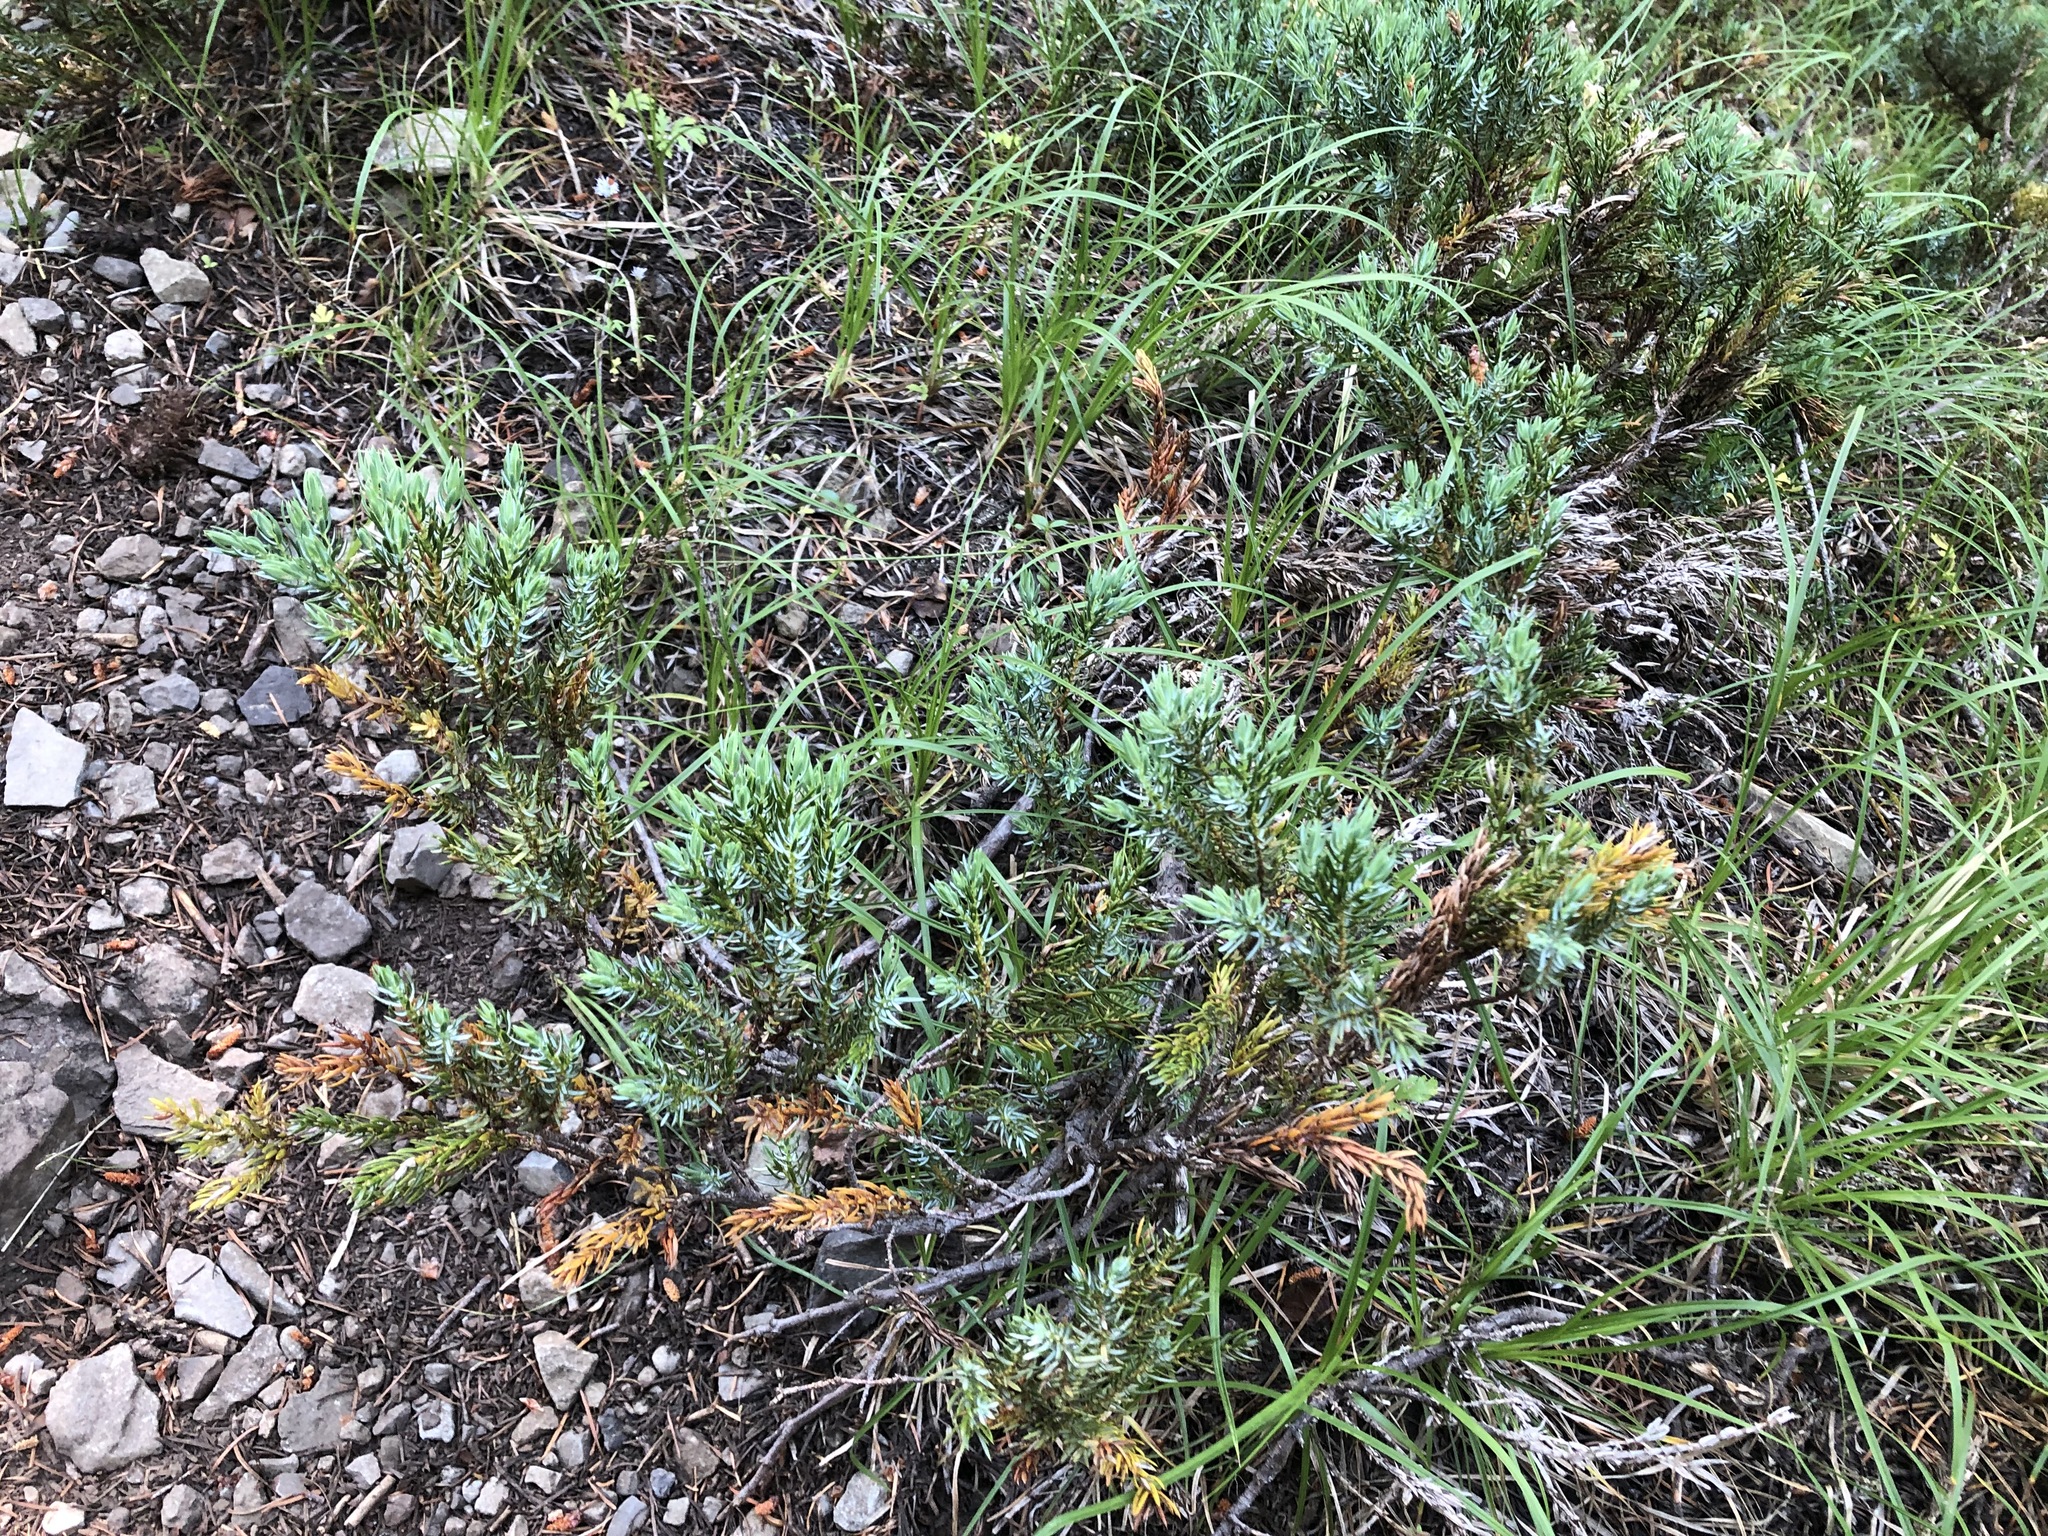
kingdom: Plantae
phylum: Tracheophyta
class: Pinopsida
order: Pinales
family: Cupressaceae
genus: Juniperus
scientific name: Juniperus communis
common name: Common juniper
